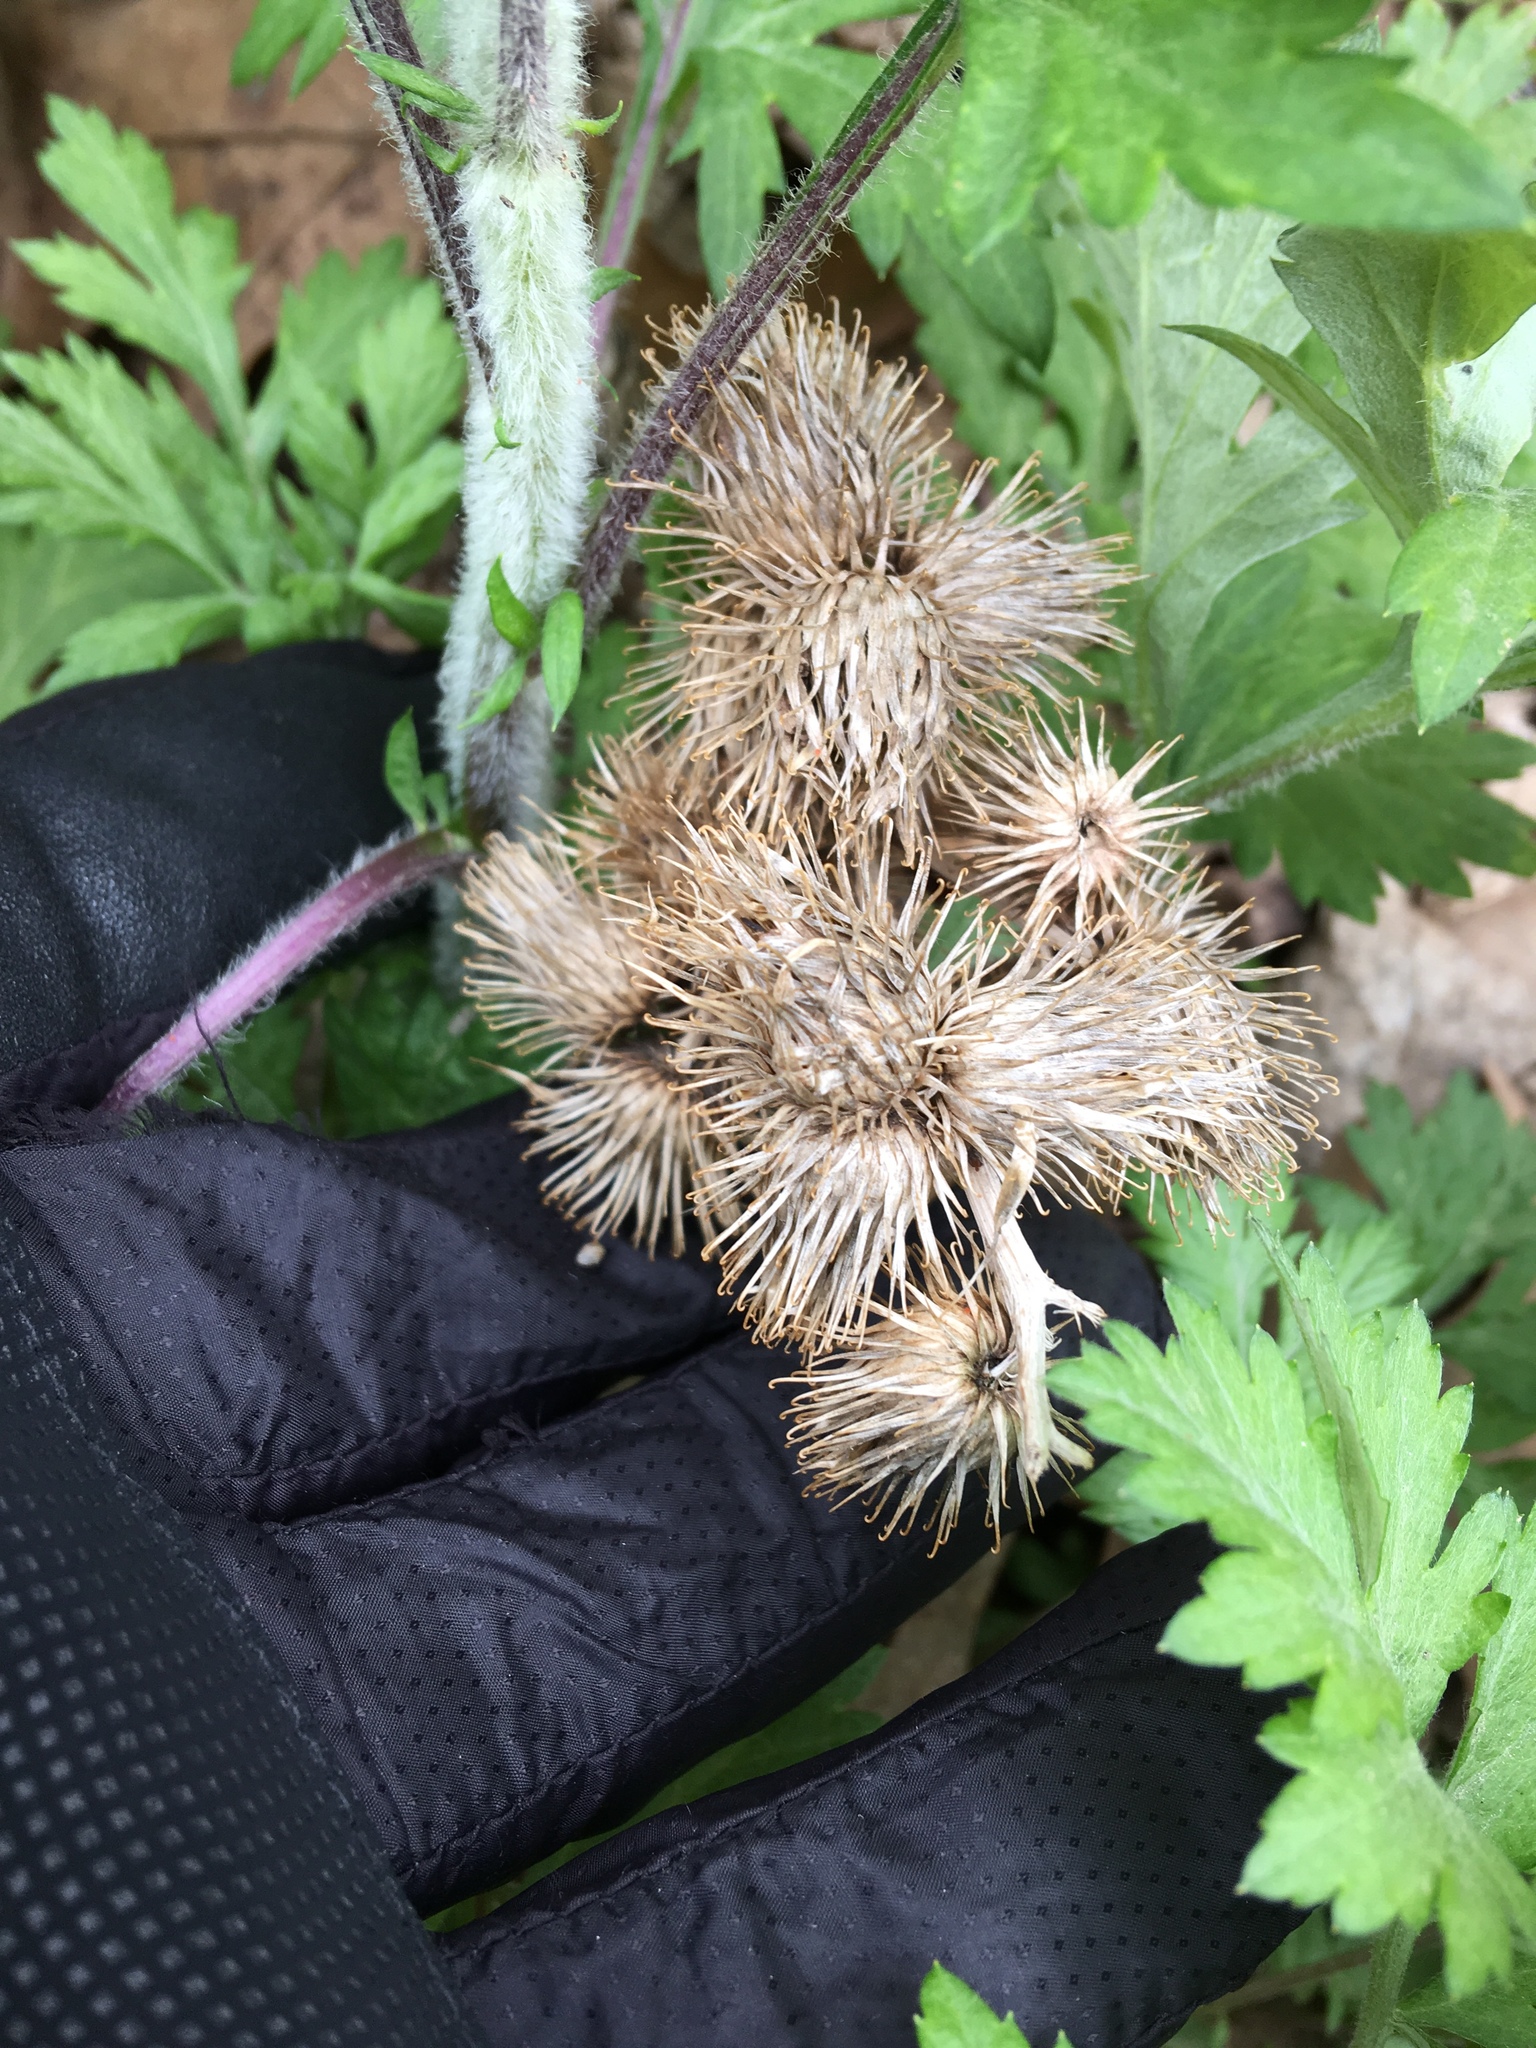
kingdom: Plantae
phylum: Tracheophyta
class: Magnoliopsida
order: Asterales
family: Asteraceae
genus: Arctium
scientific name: Arctium minus
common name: Lesser burdock
